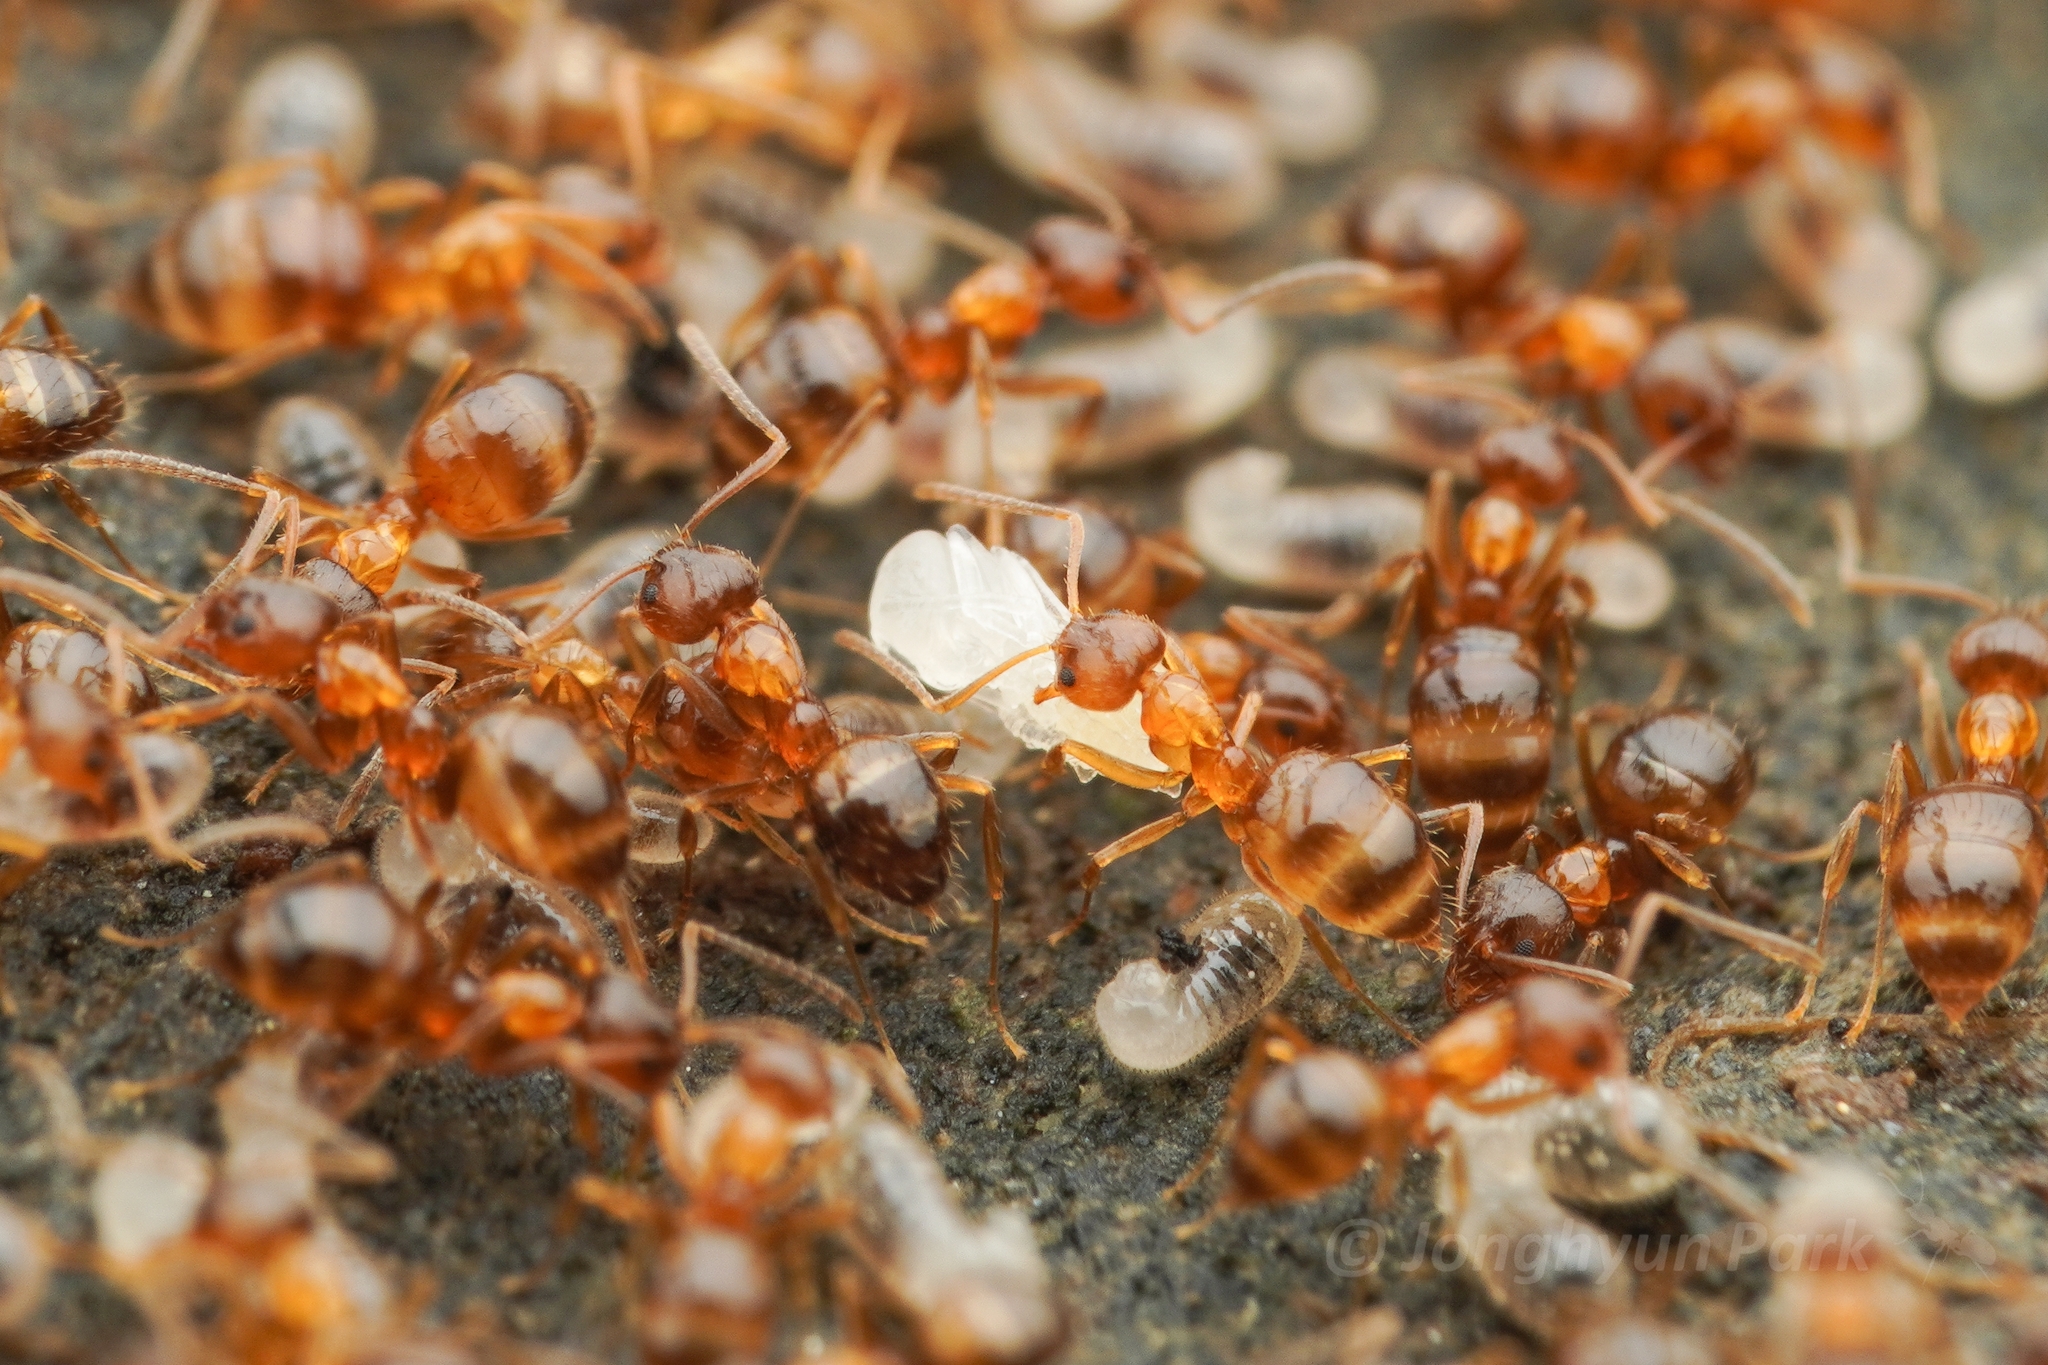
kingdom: Animalia
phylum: Arthropoda
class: Insecta
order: Hymenoptera
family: Formicidae
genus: Paratrechina
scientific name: Paratrechina flavipes
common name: Eastern asian formicine ant
